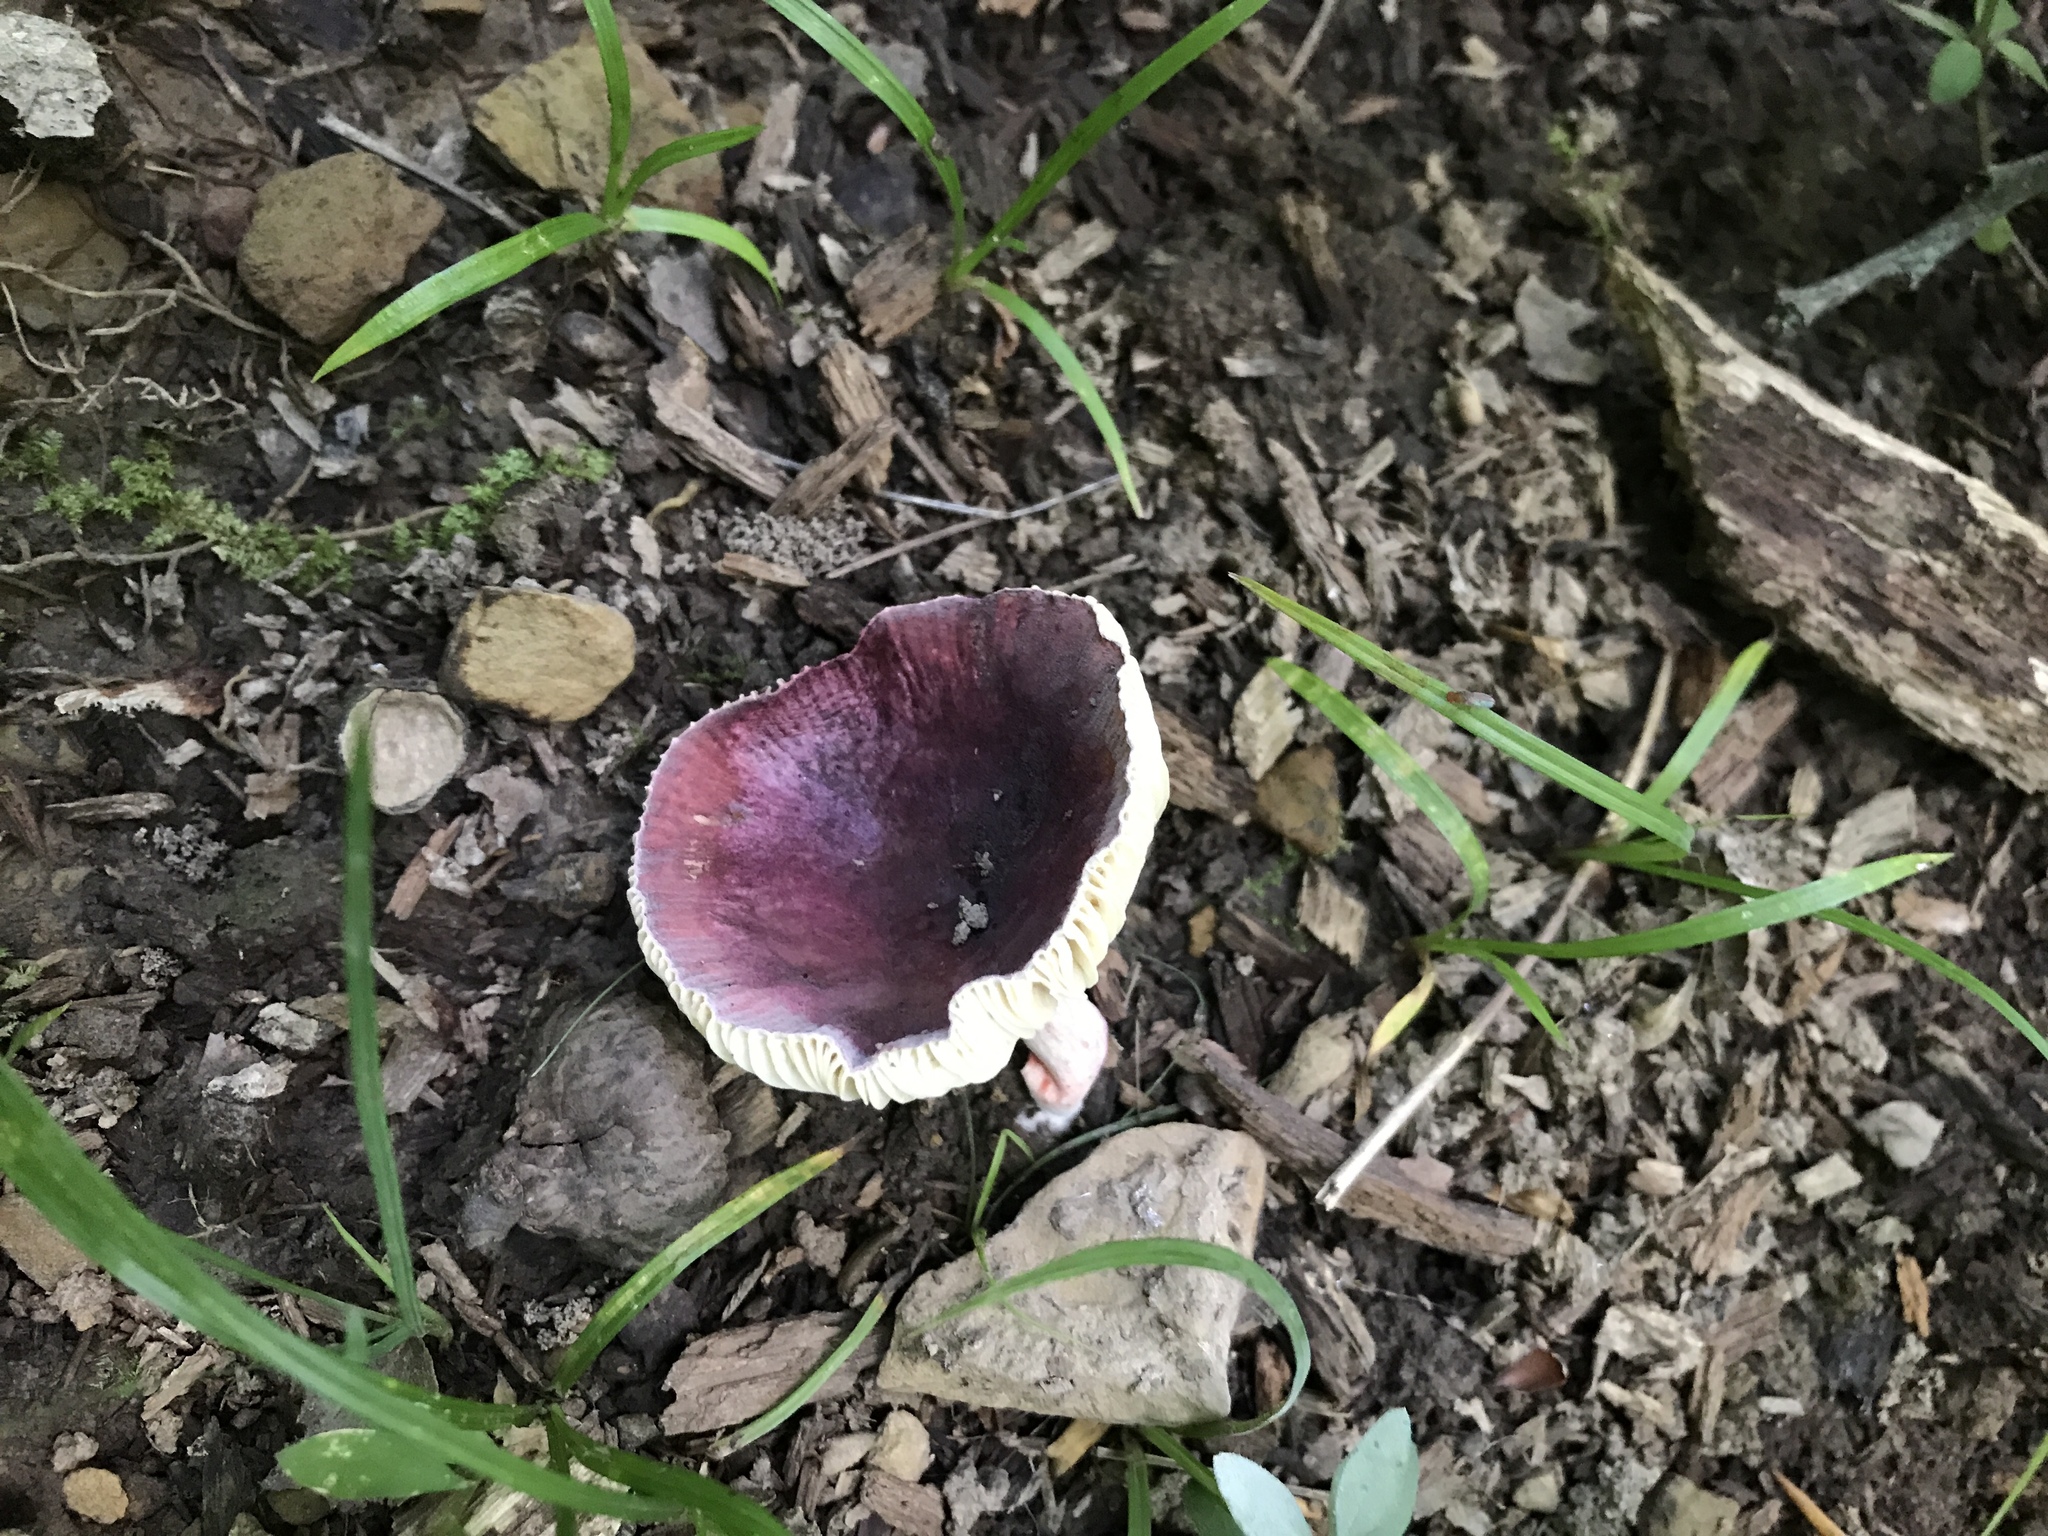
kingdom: Fungi
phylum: Basidiomycota
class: Agaricomycetes
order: Russulales
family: Russulaceae
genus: Russula
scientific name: Russula vinacea
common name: Blackish-red russula
